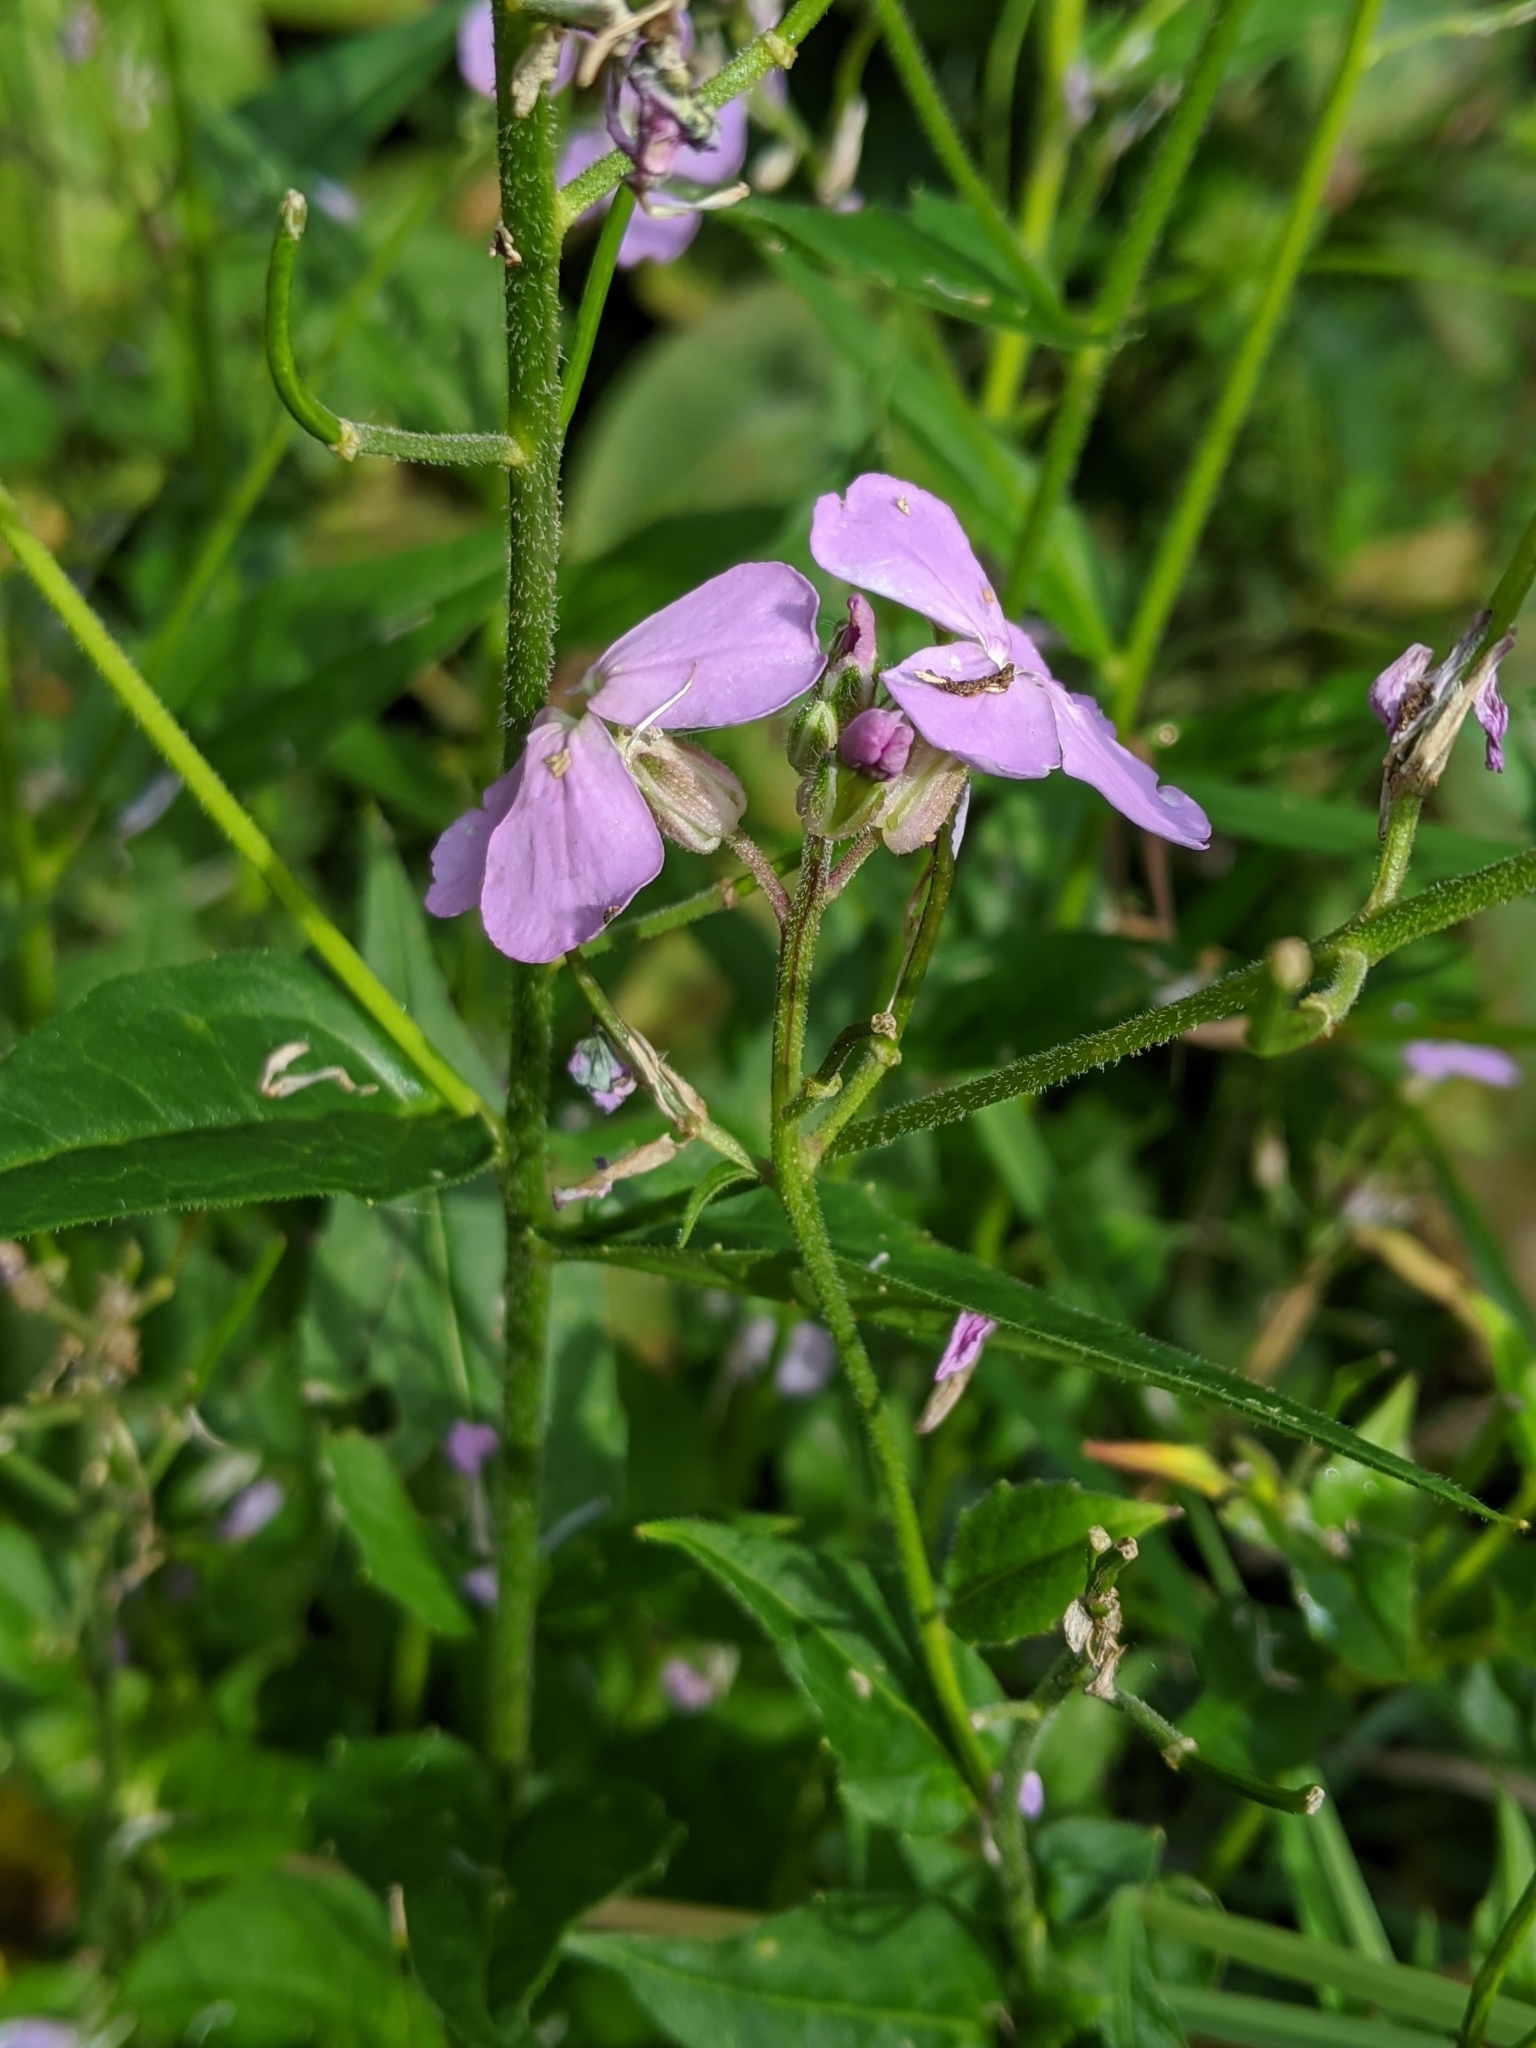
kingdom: Plantae
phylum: Tracheophyta
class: Magnoliopsida
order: Brassicales
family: Brassicaceae
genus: Hesperis
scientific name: Hesperis matronalis
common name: Dame's-violet
